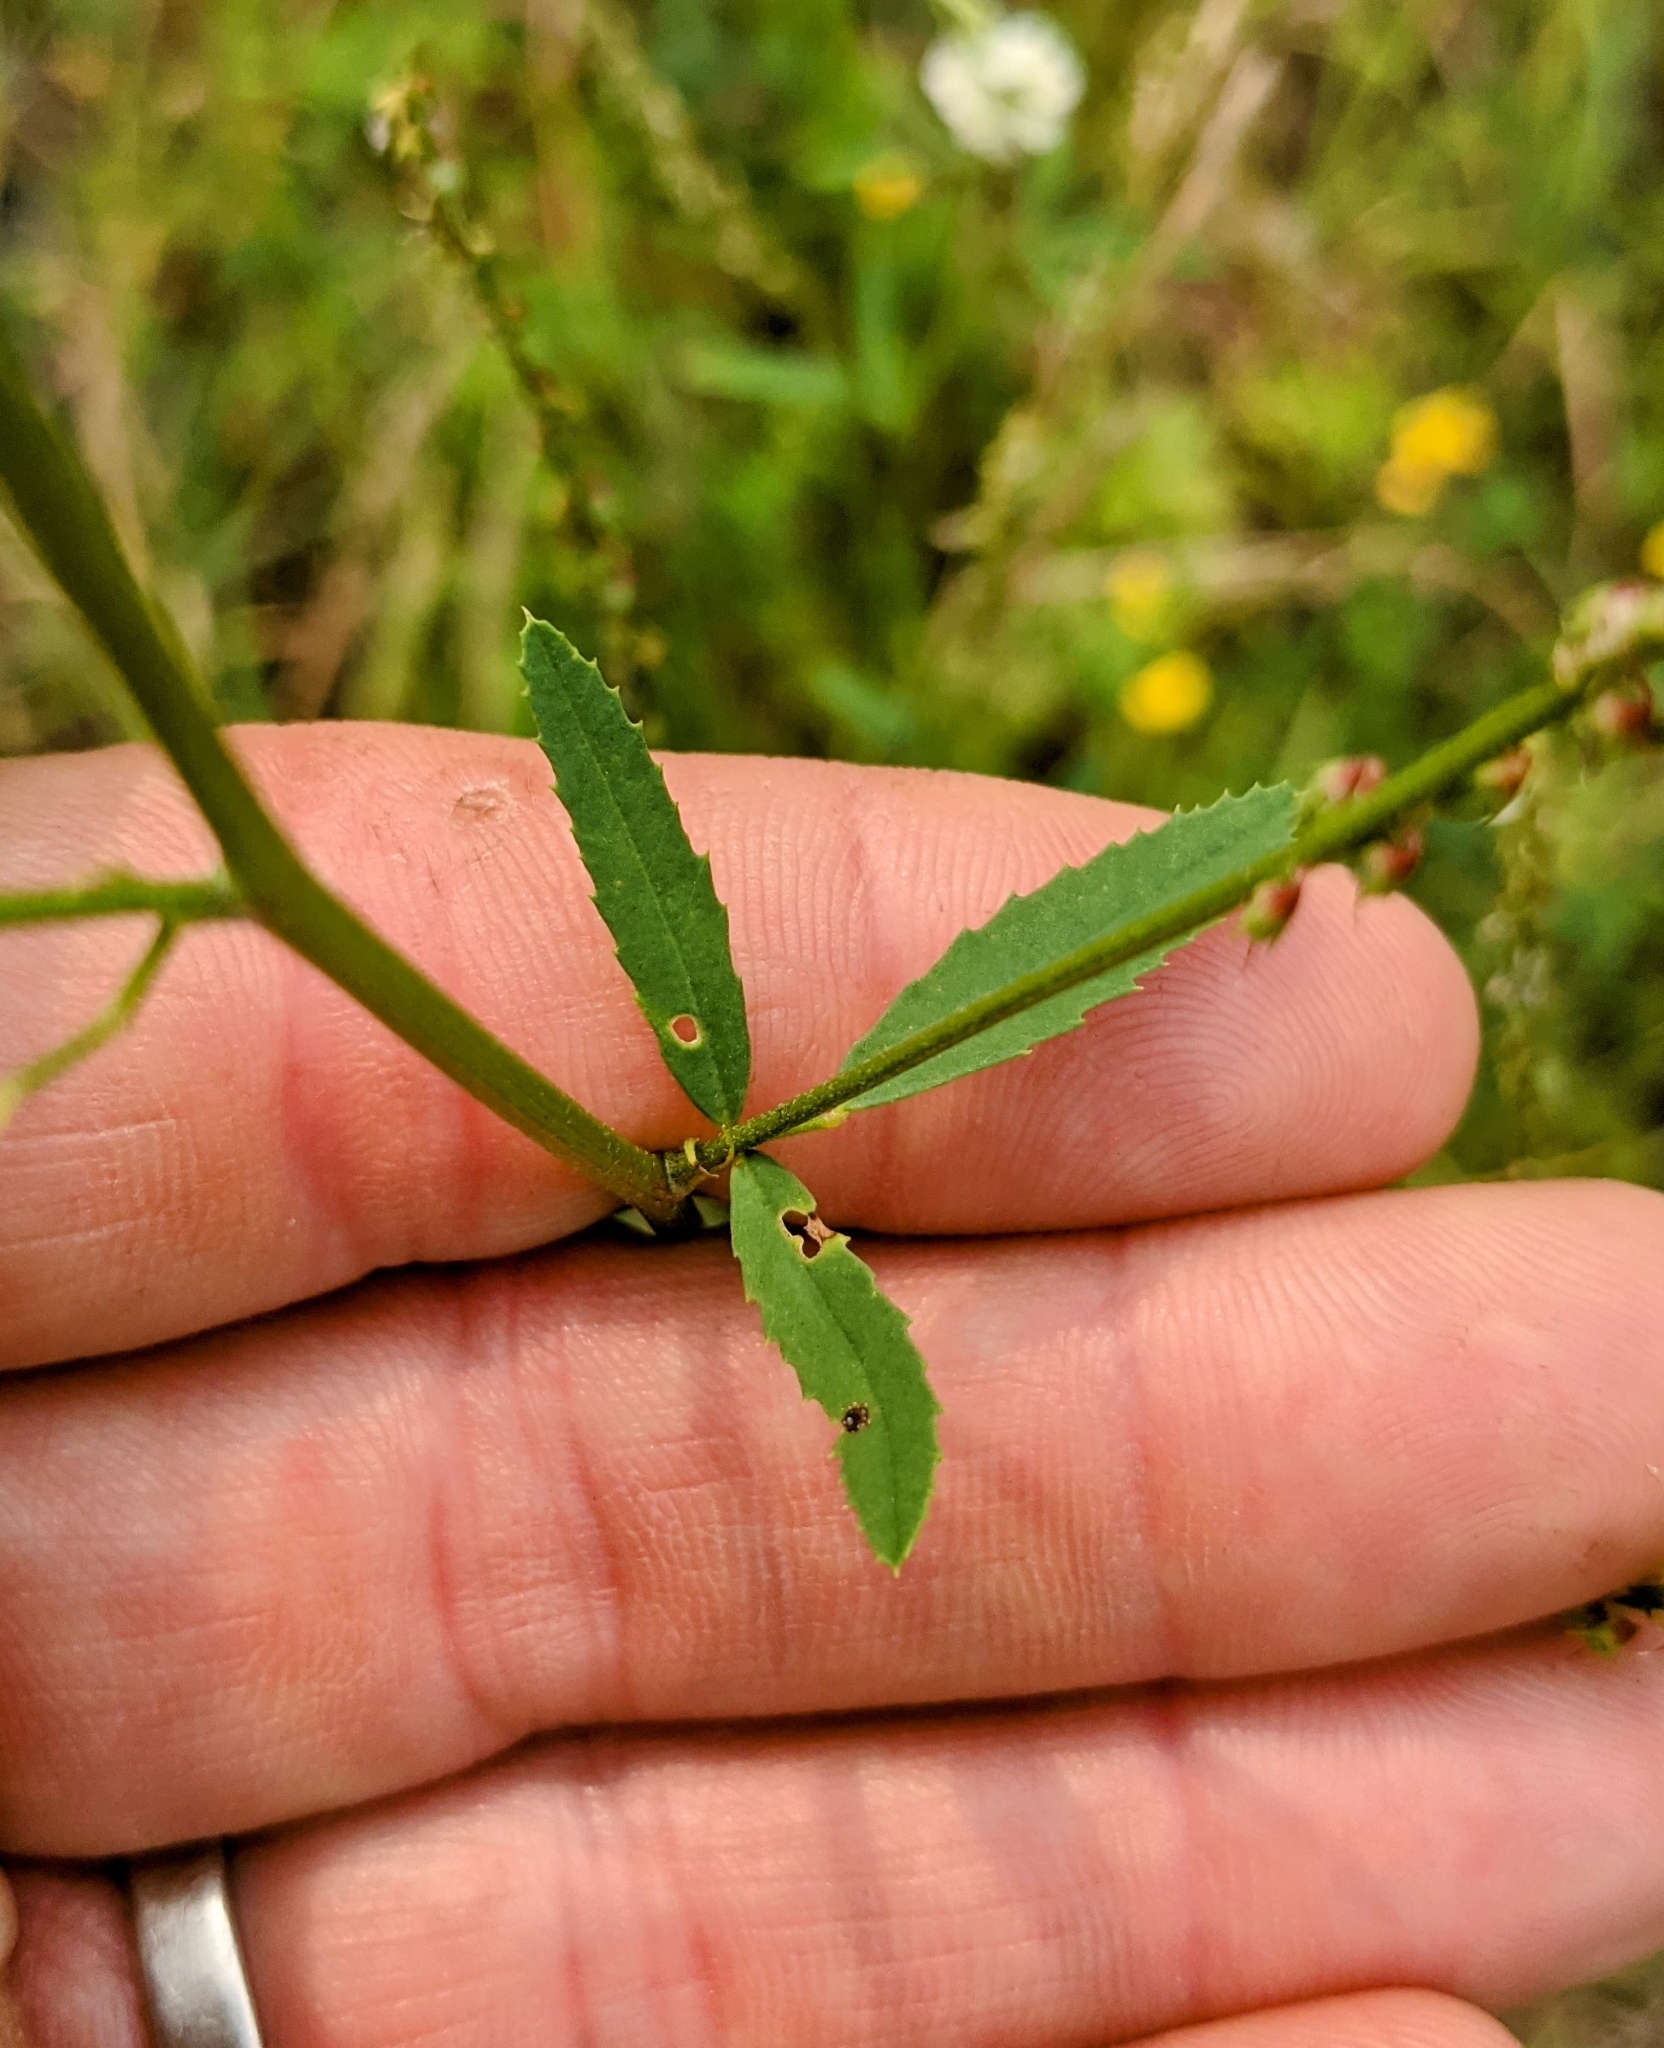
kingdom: Plantae
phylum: Tracheophyta
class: Magnoliopsida
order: Fabales
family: Fabaceae
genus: Melilotus
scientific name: Melilotus albus
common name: White melilot
